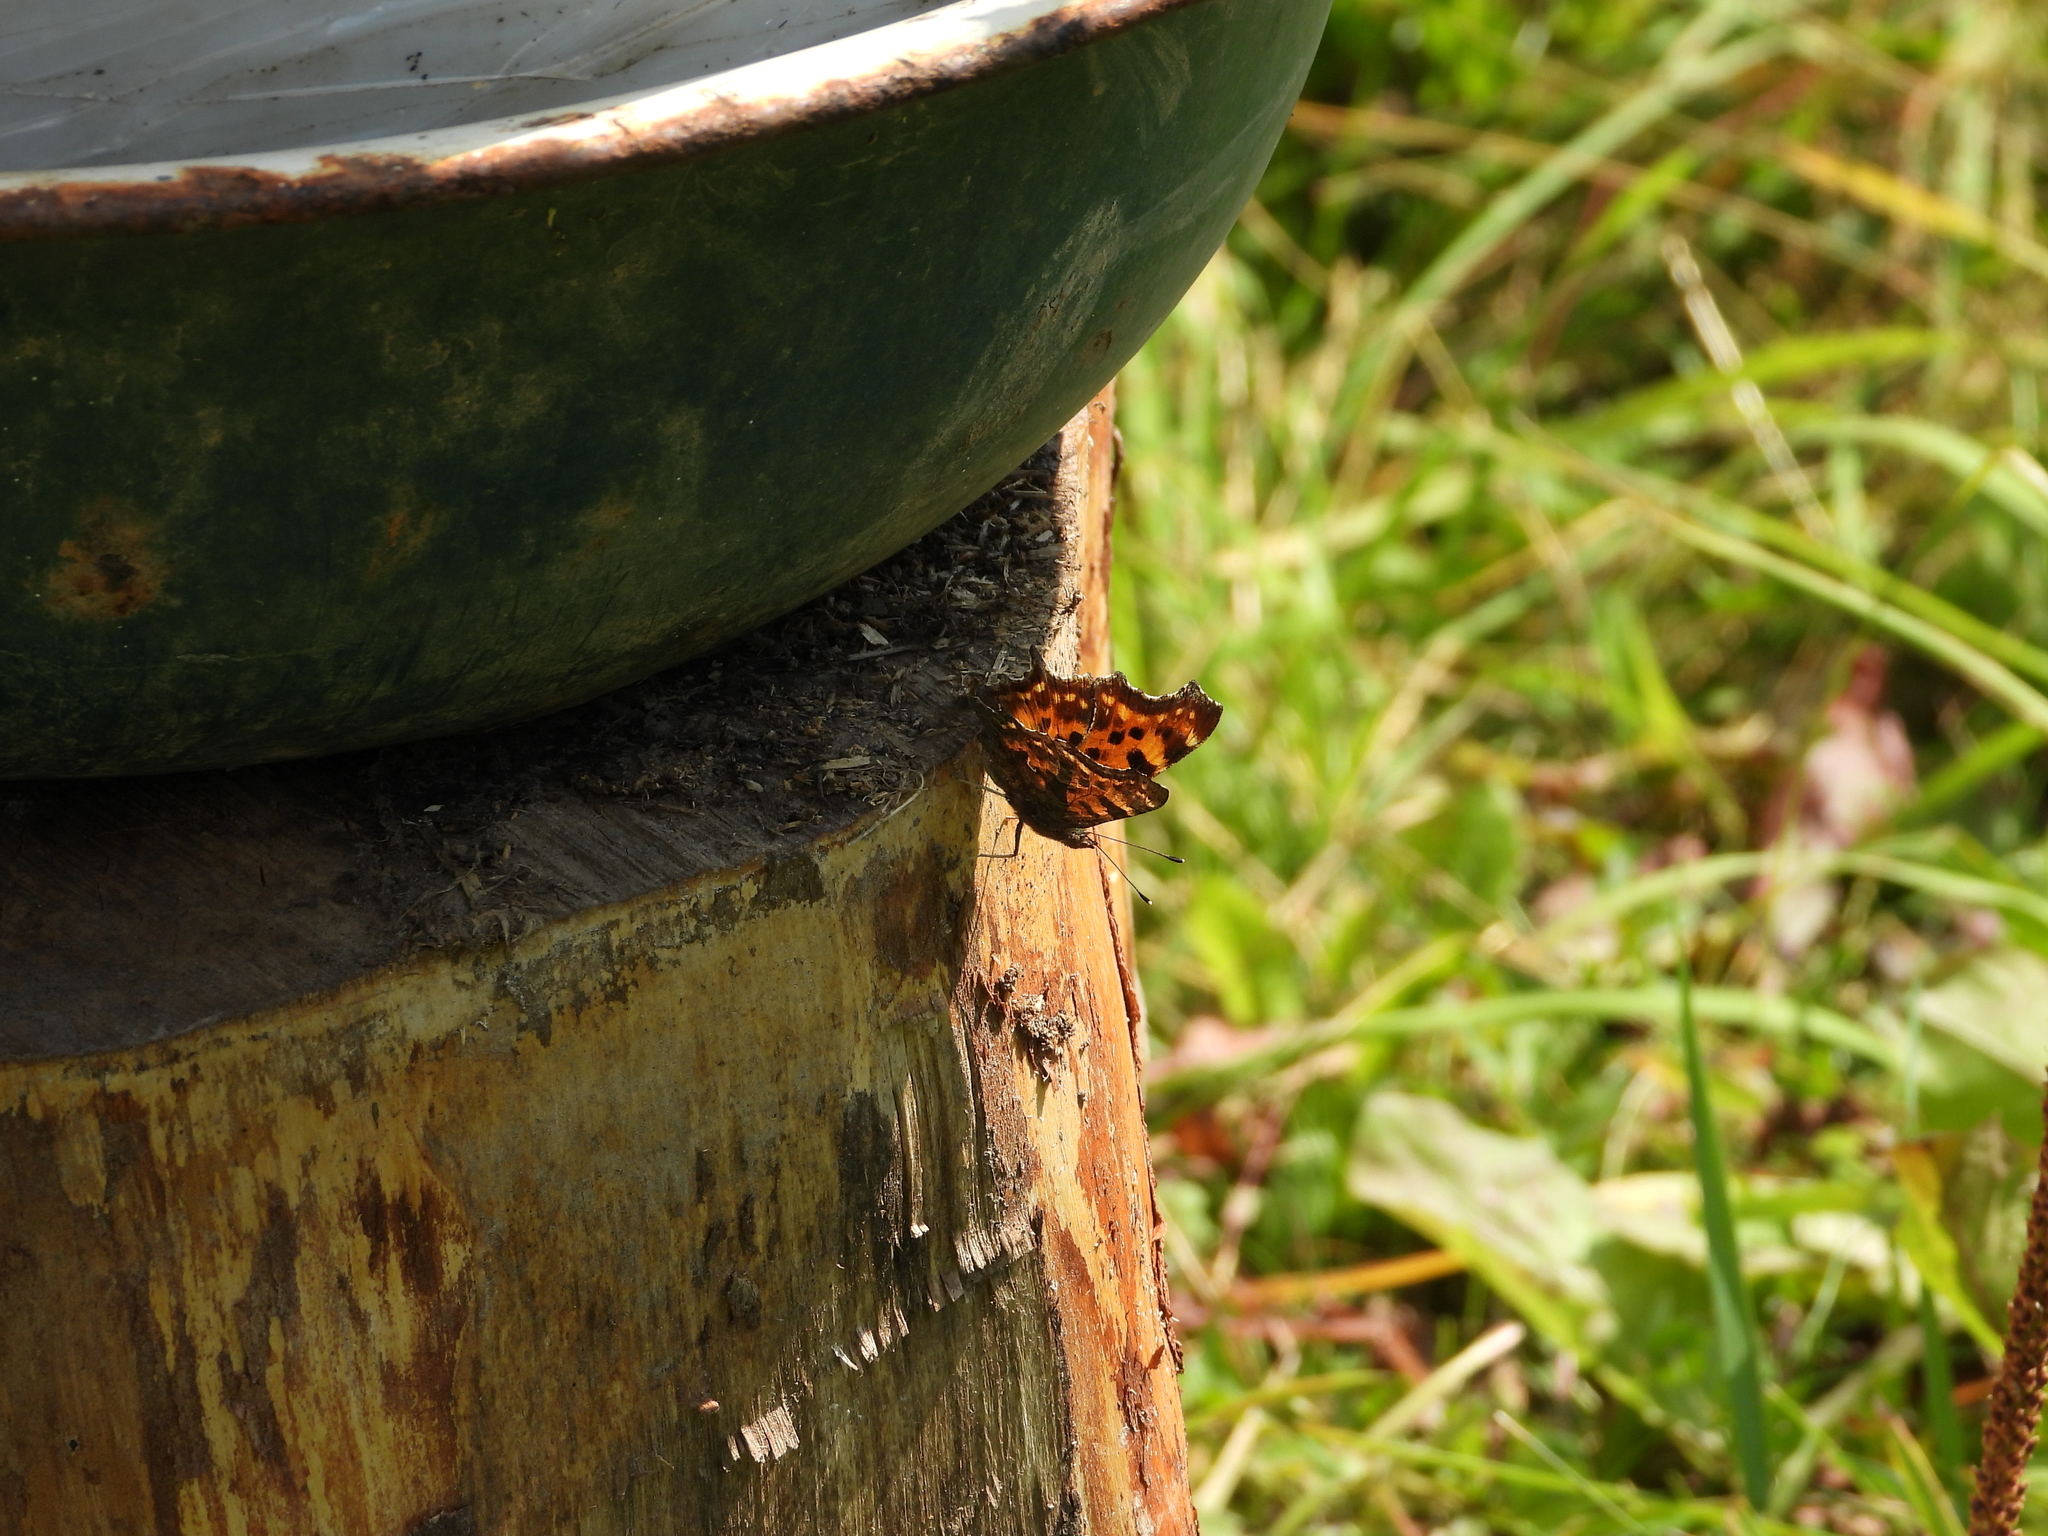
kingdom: Animalia
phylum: Arthropoda
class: Insecta
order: Lepidoptera
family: Nymphalidae
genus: Polygonia
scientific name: Polygonia c-album
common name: Comma
